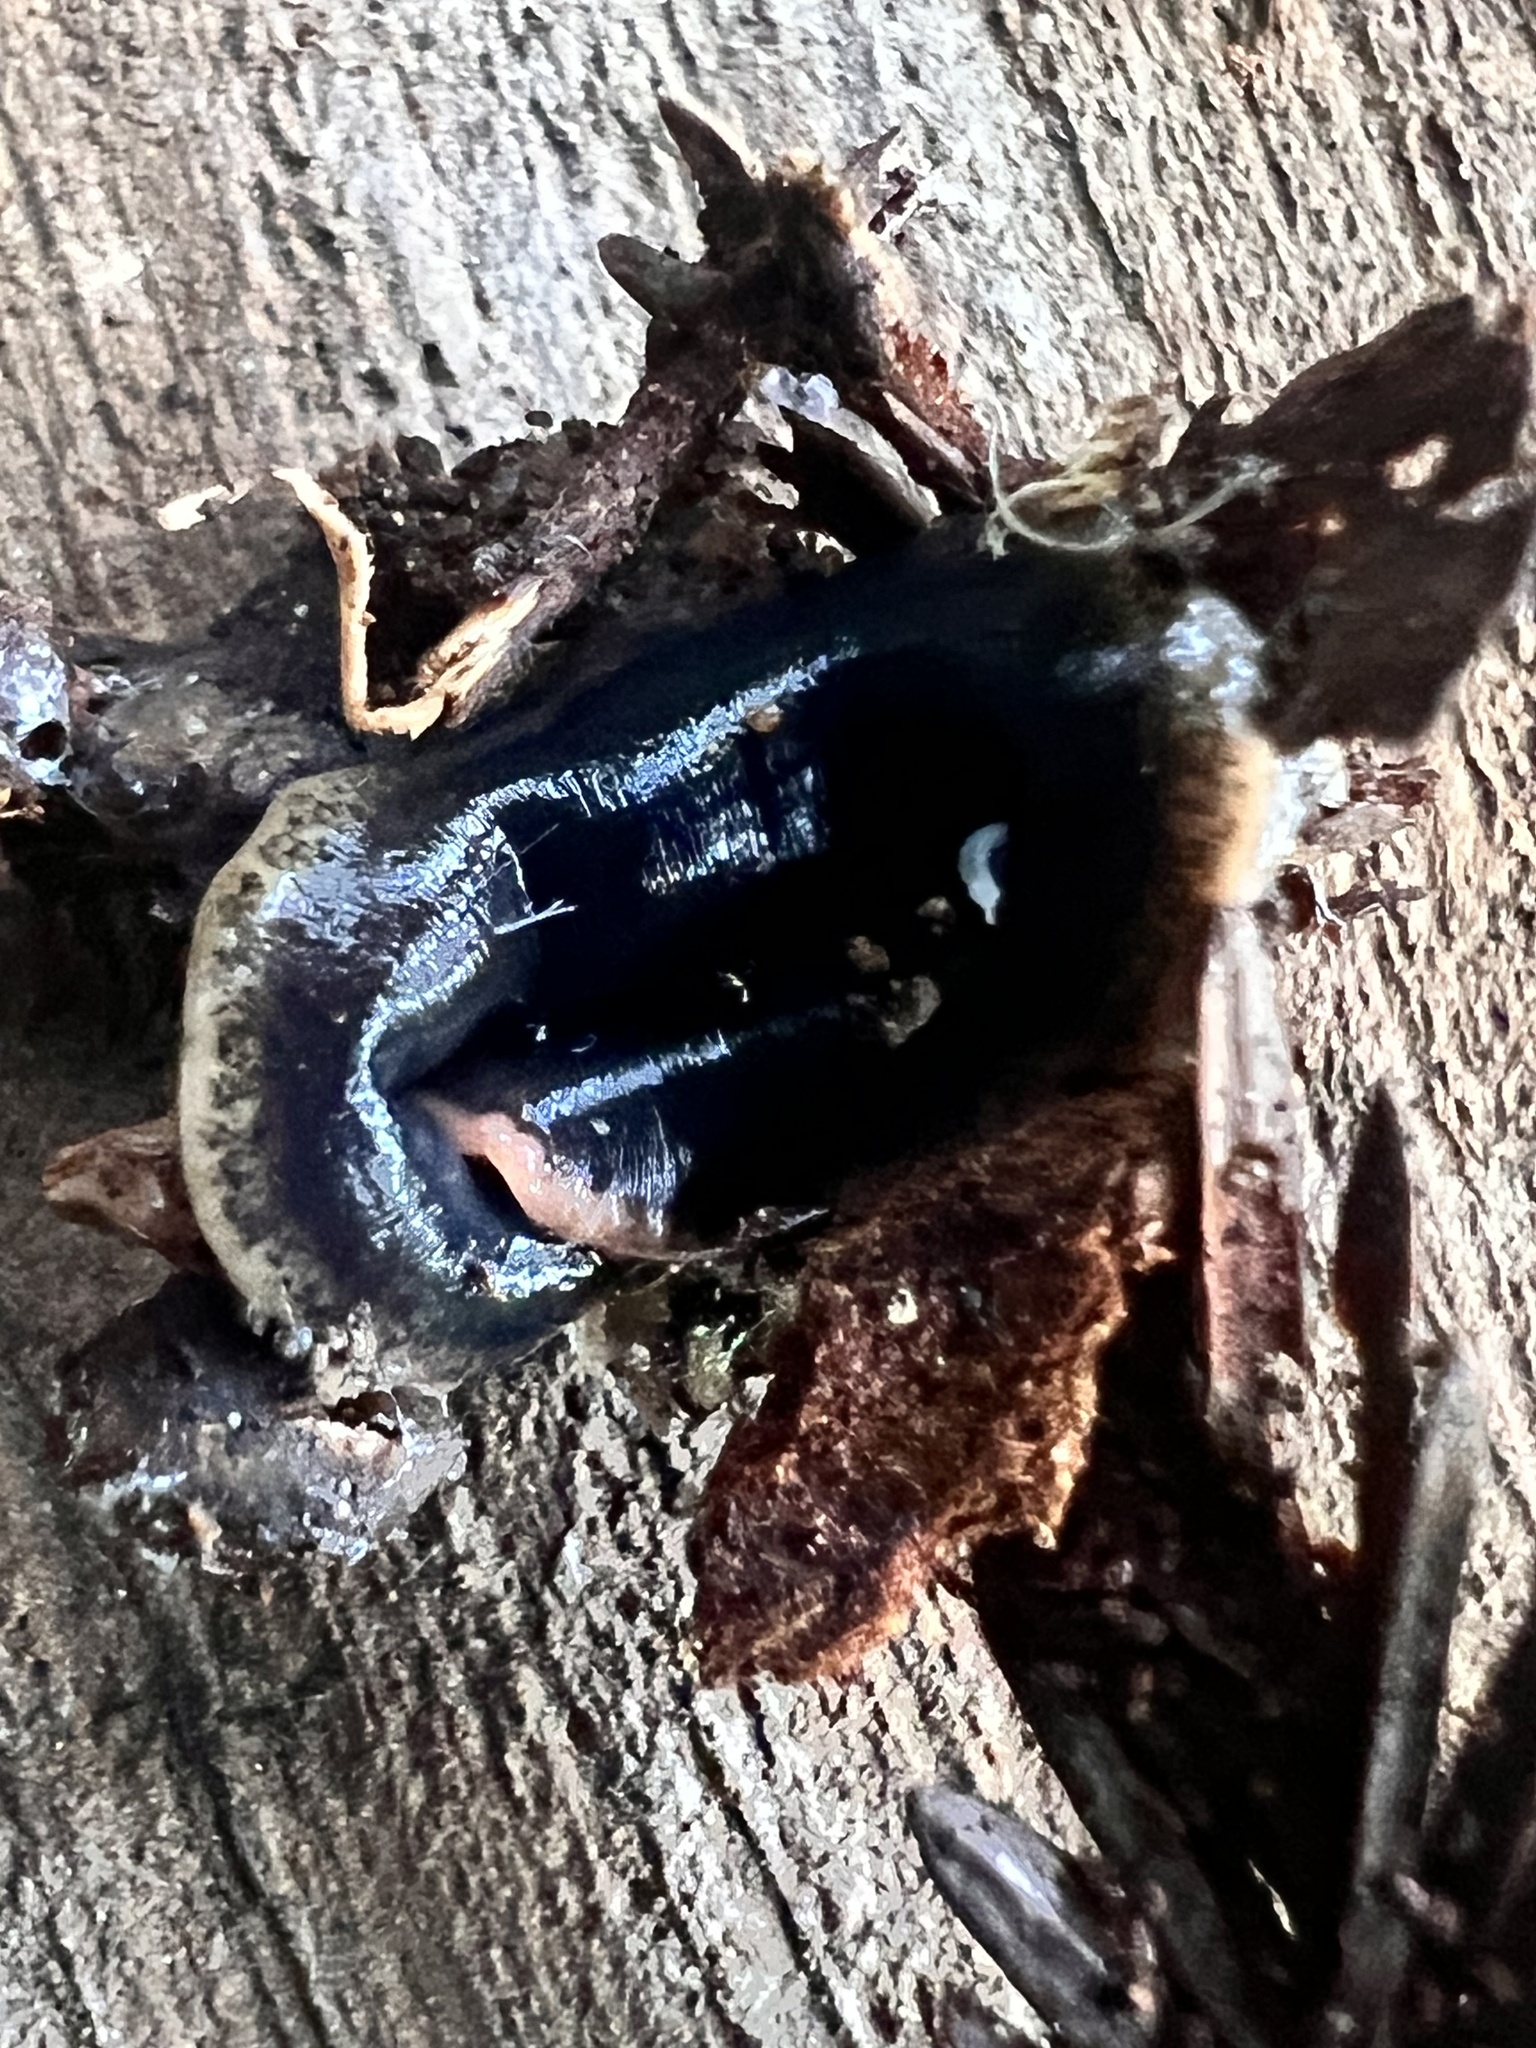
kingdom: Animalia
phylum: Platyhelminthes
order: Tricladida
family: Geoplanidae
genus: Arthurdendyus
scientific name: Arthurdendyus triangulatus
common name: New zealand flatworm
